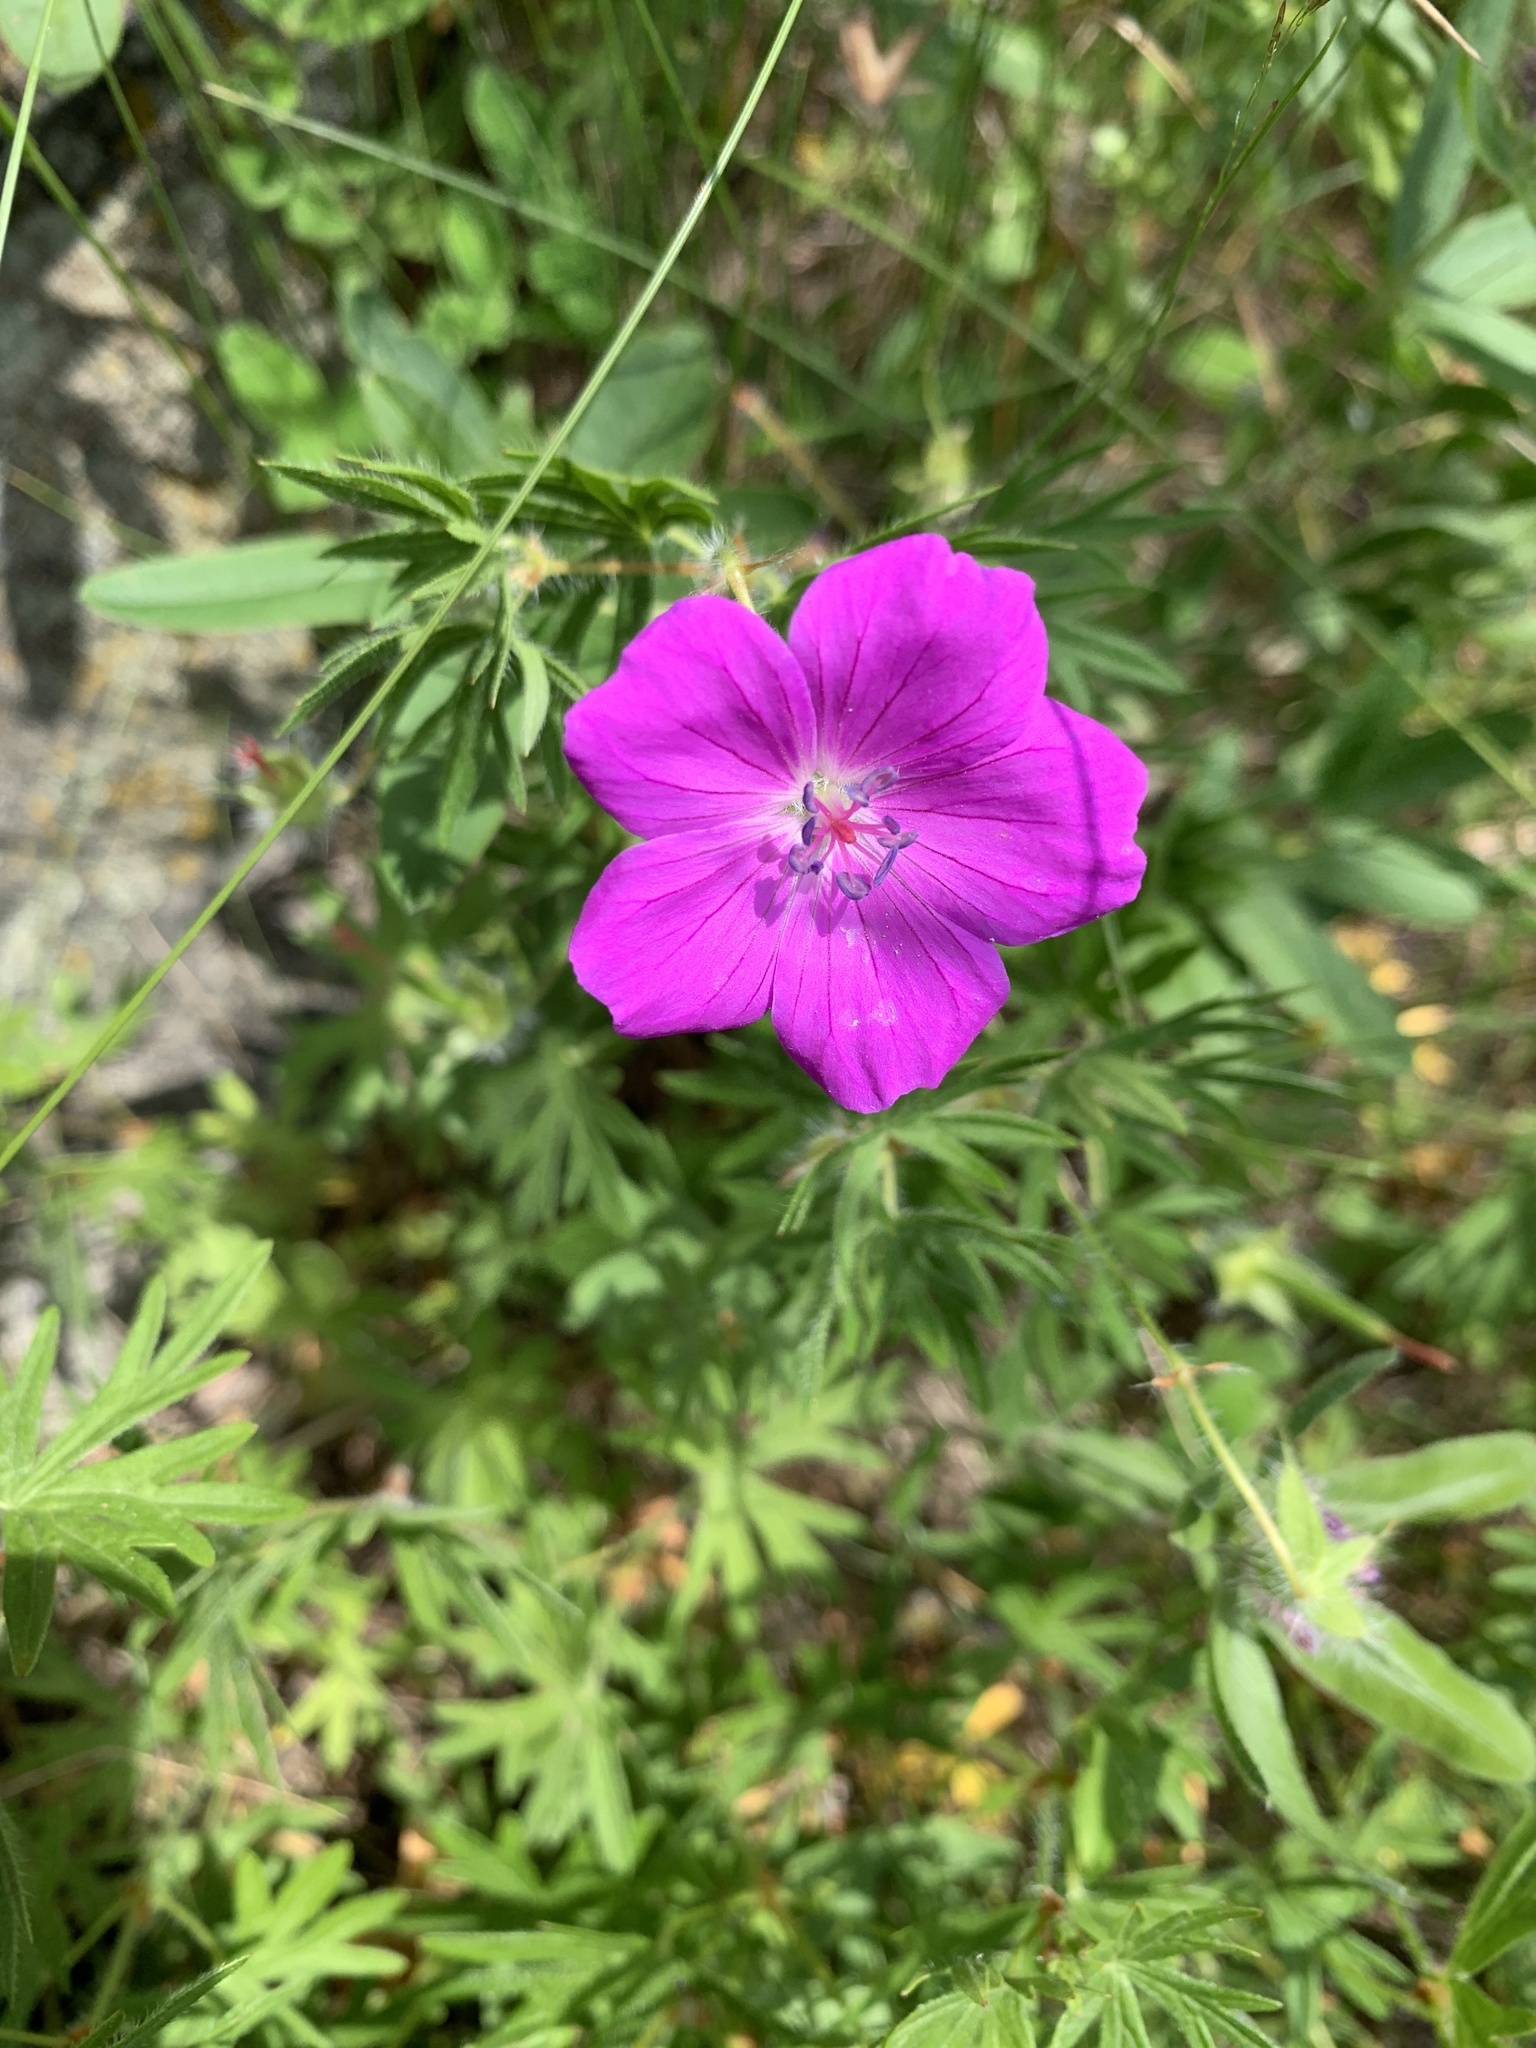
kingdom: Plantae
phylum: Tracheophyta
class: Magnoliopsida
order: Geraniales
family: Geraniaceae
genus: Geranium
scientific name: Geranium sanguineum
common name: Bloody crane's-bill
